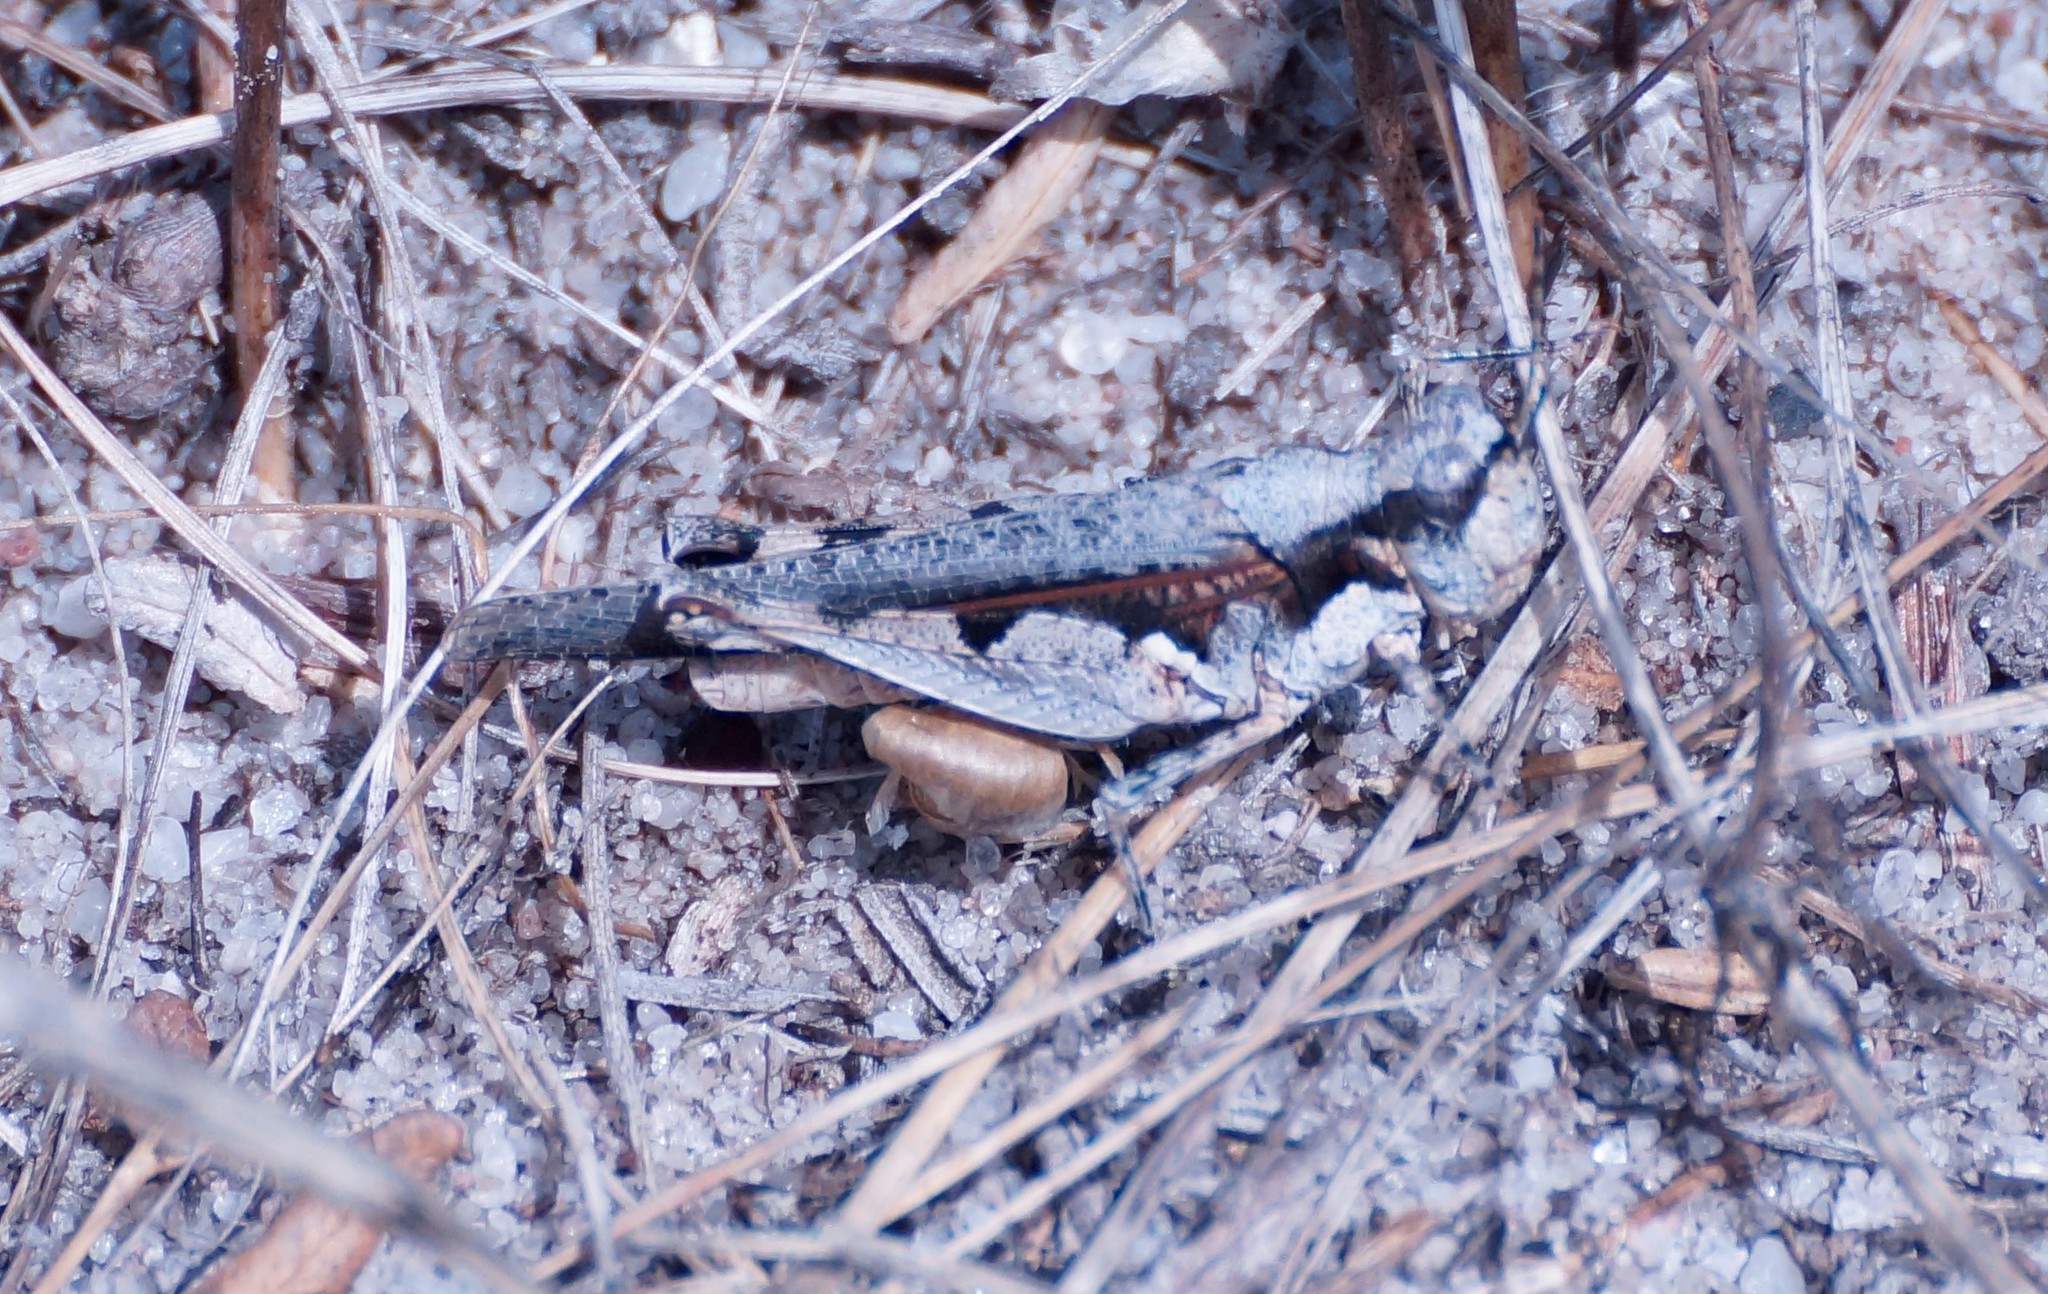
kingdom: Animalia
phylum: Arthropoda
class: Insecta
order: Orthoptera
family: Acrididae
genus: Pycnostictus
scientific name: Pycnostictus seriatus
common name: Common bandwing
